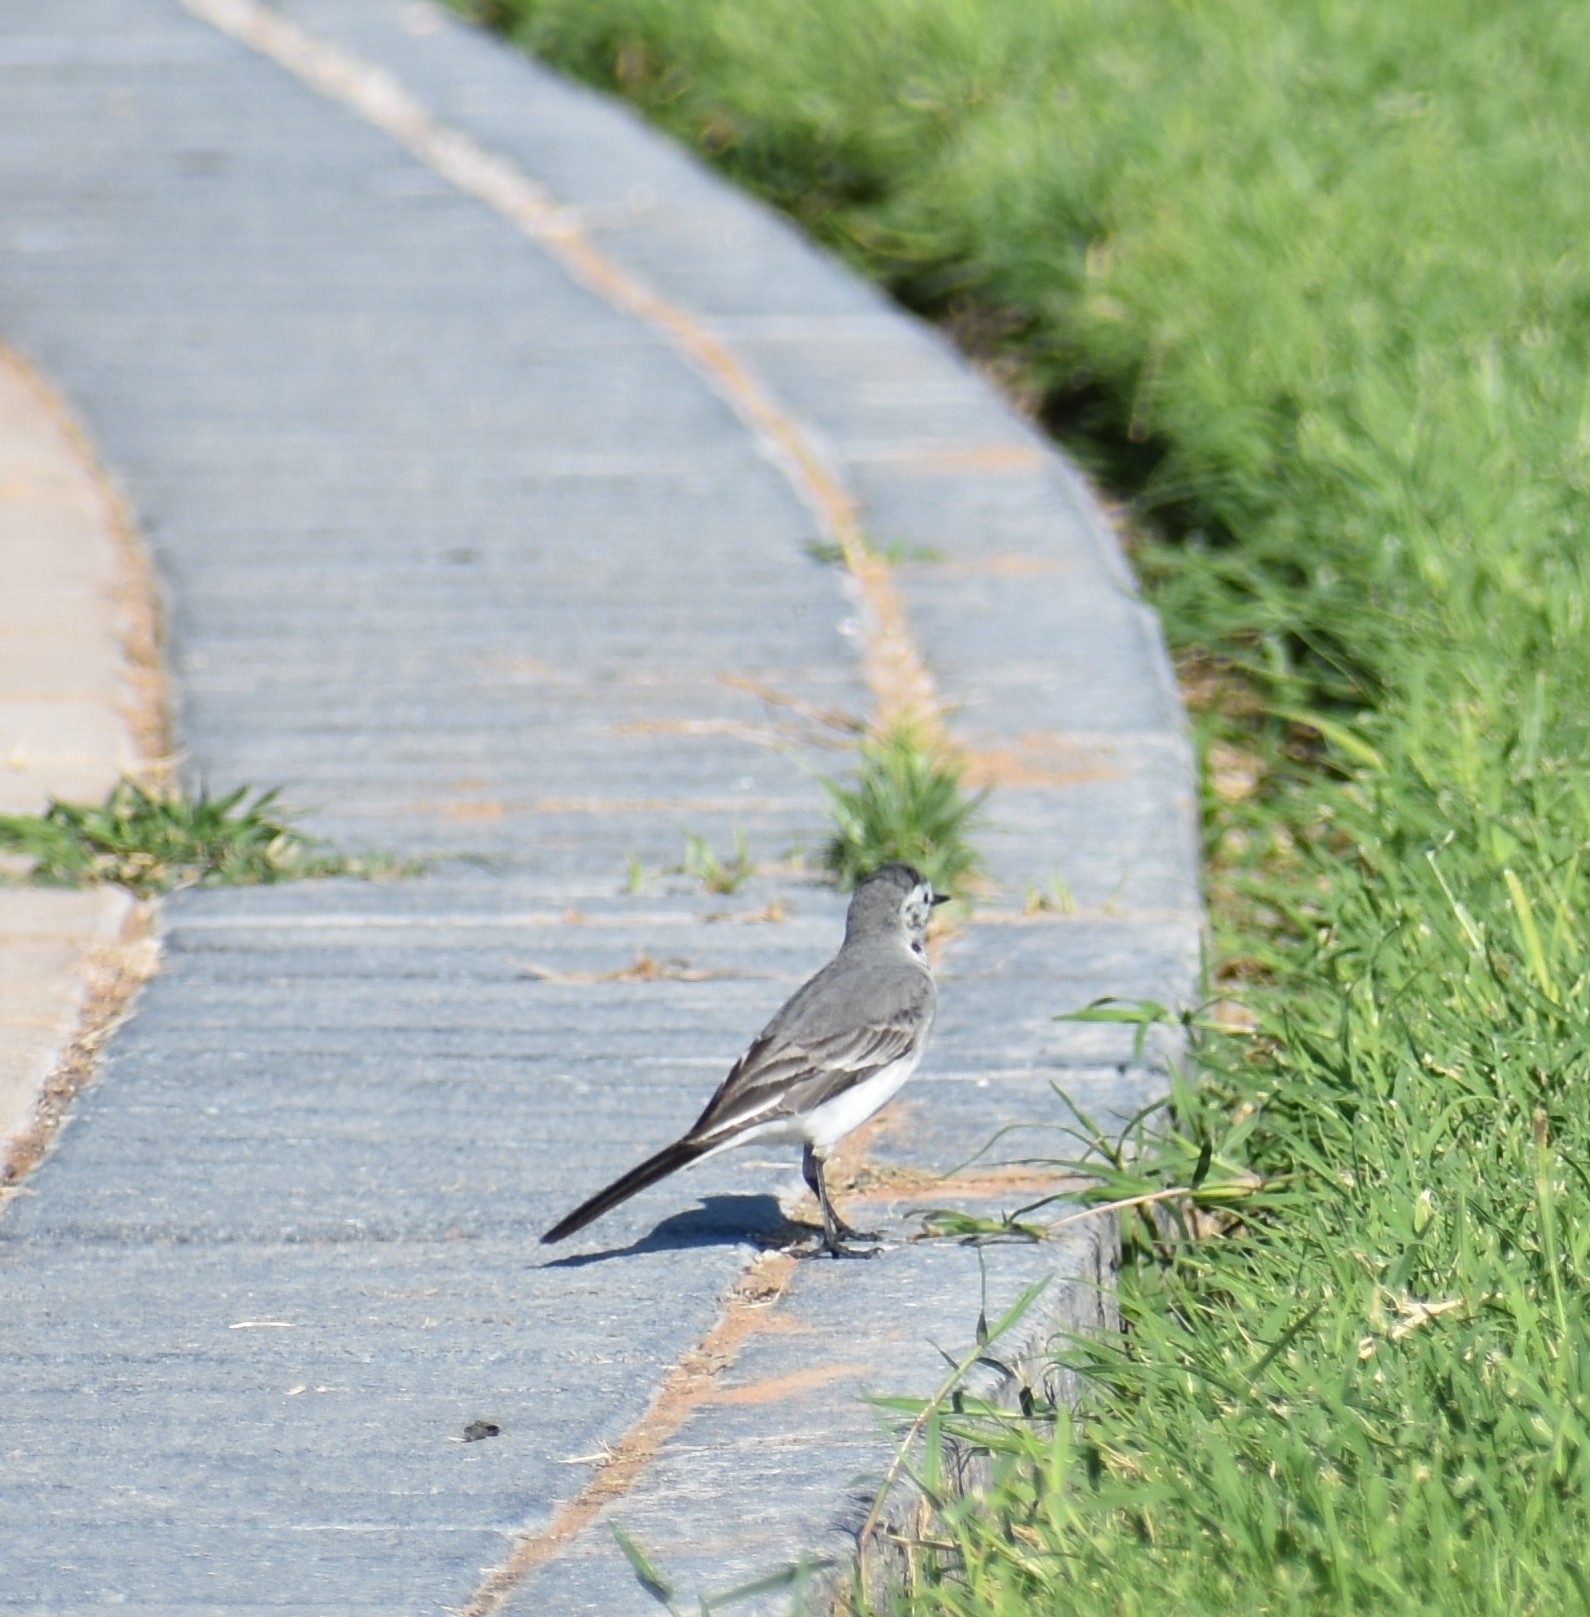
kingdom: Animalia
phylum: Chordata
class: Aves
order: Passeriformes
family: Motacillidae
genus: Motacilla
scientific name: Motacilla alba
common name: White wagtail
